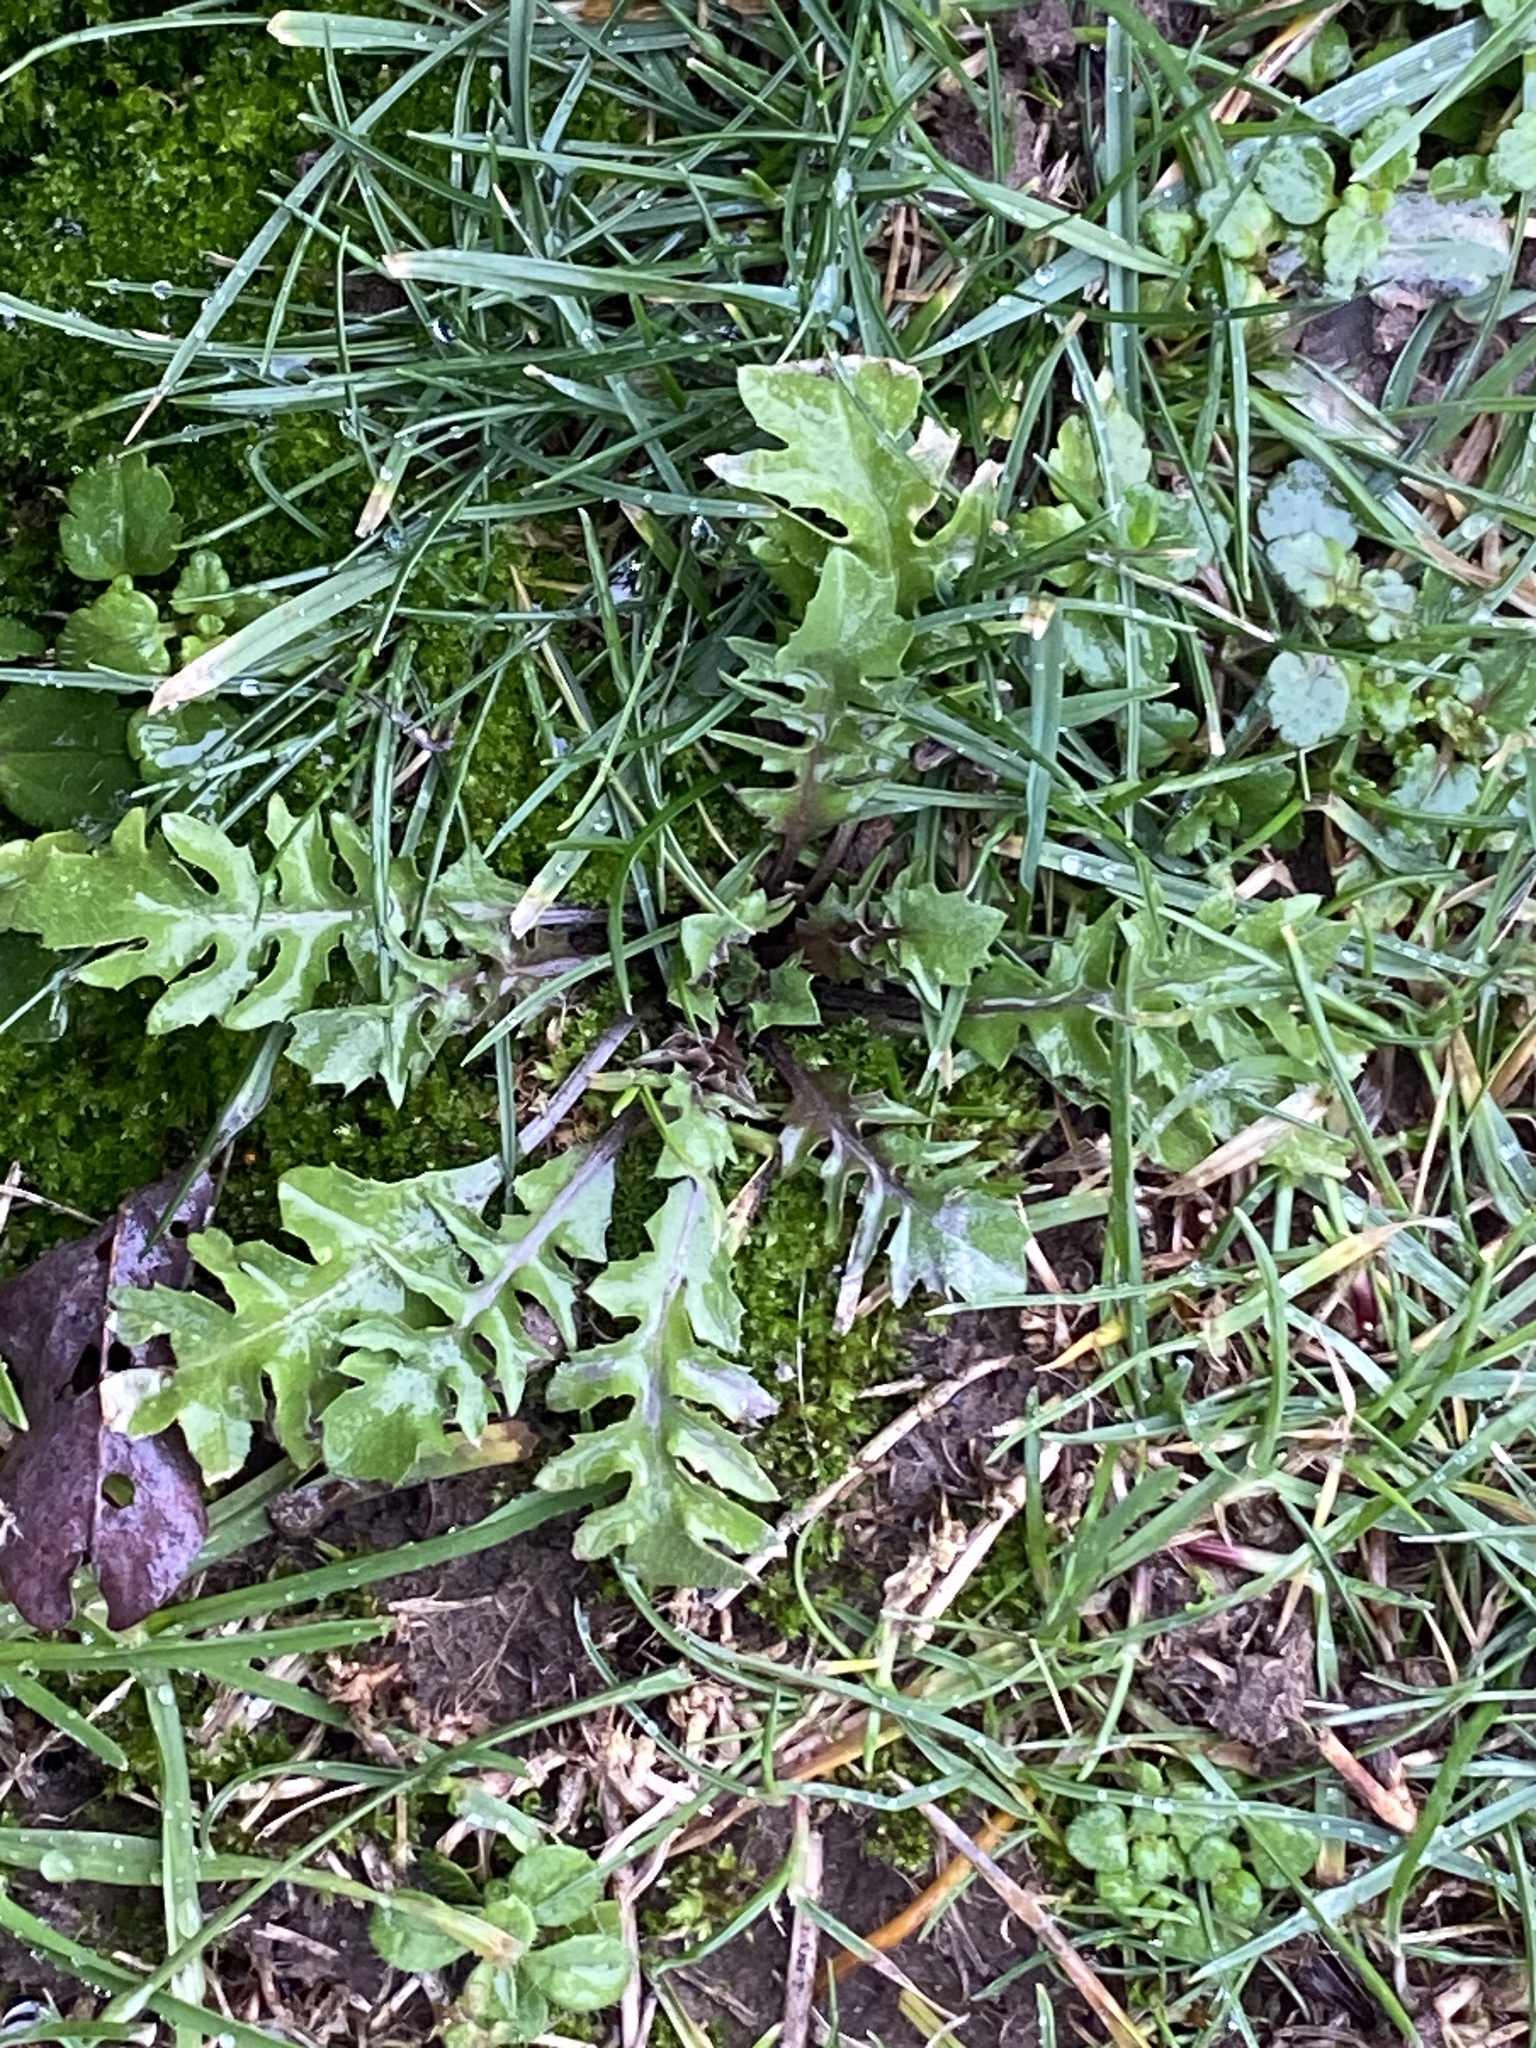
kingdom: Plantae
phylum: Tracheophyta
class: Magnoliopsida
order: Brassicales
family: Brassicaceae
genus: Capsella
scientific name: Capsella bursa-pastoris
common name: Shepherd's purse
